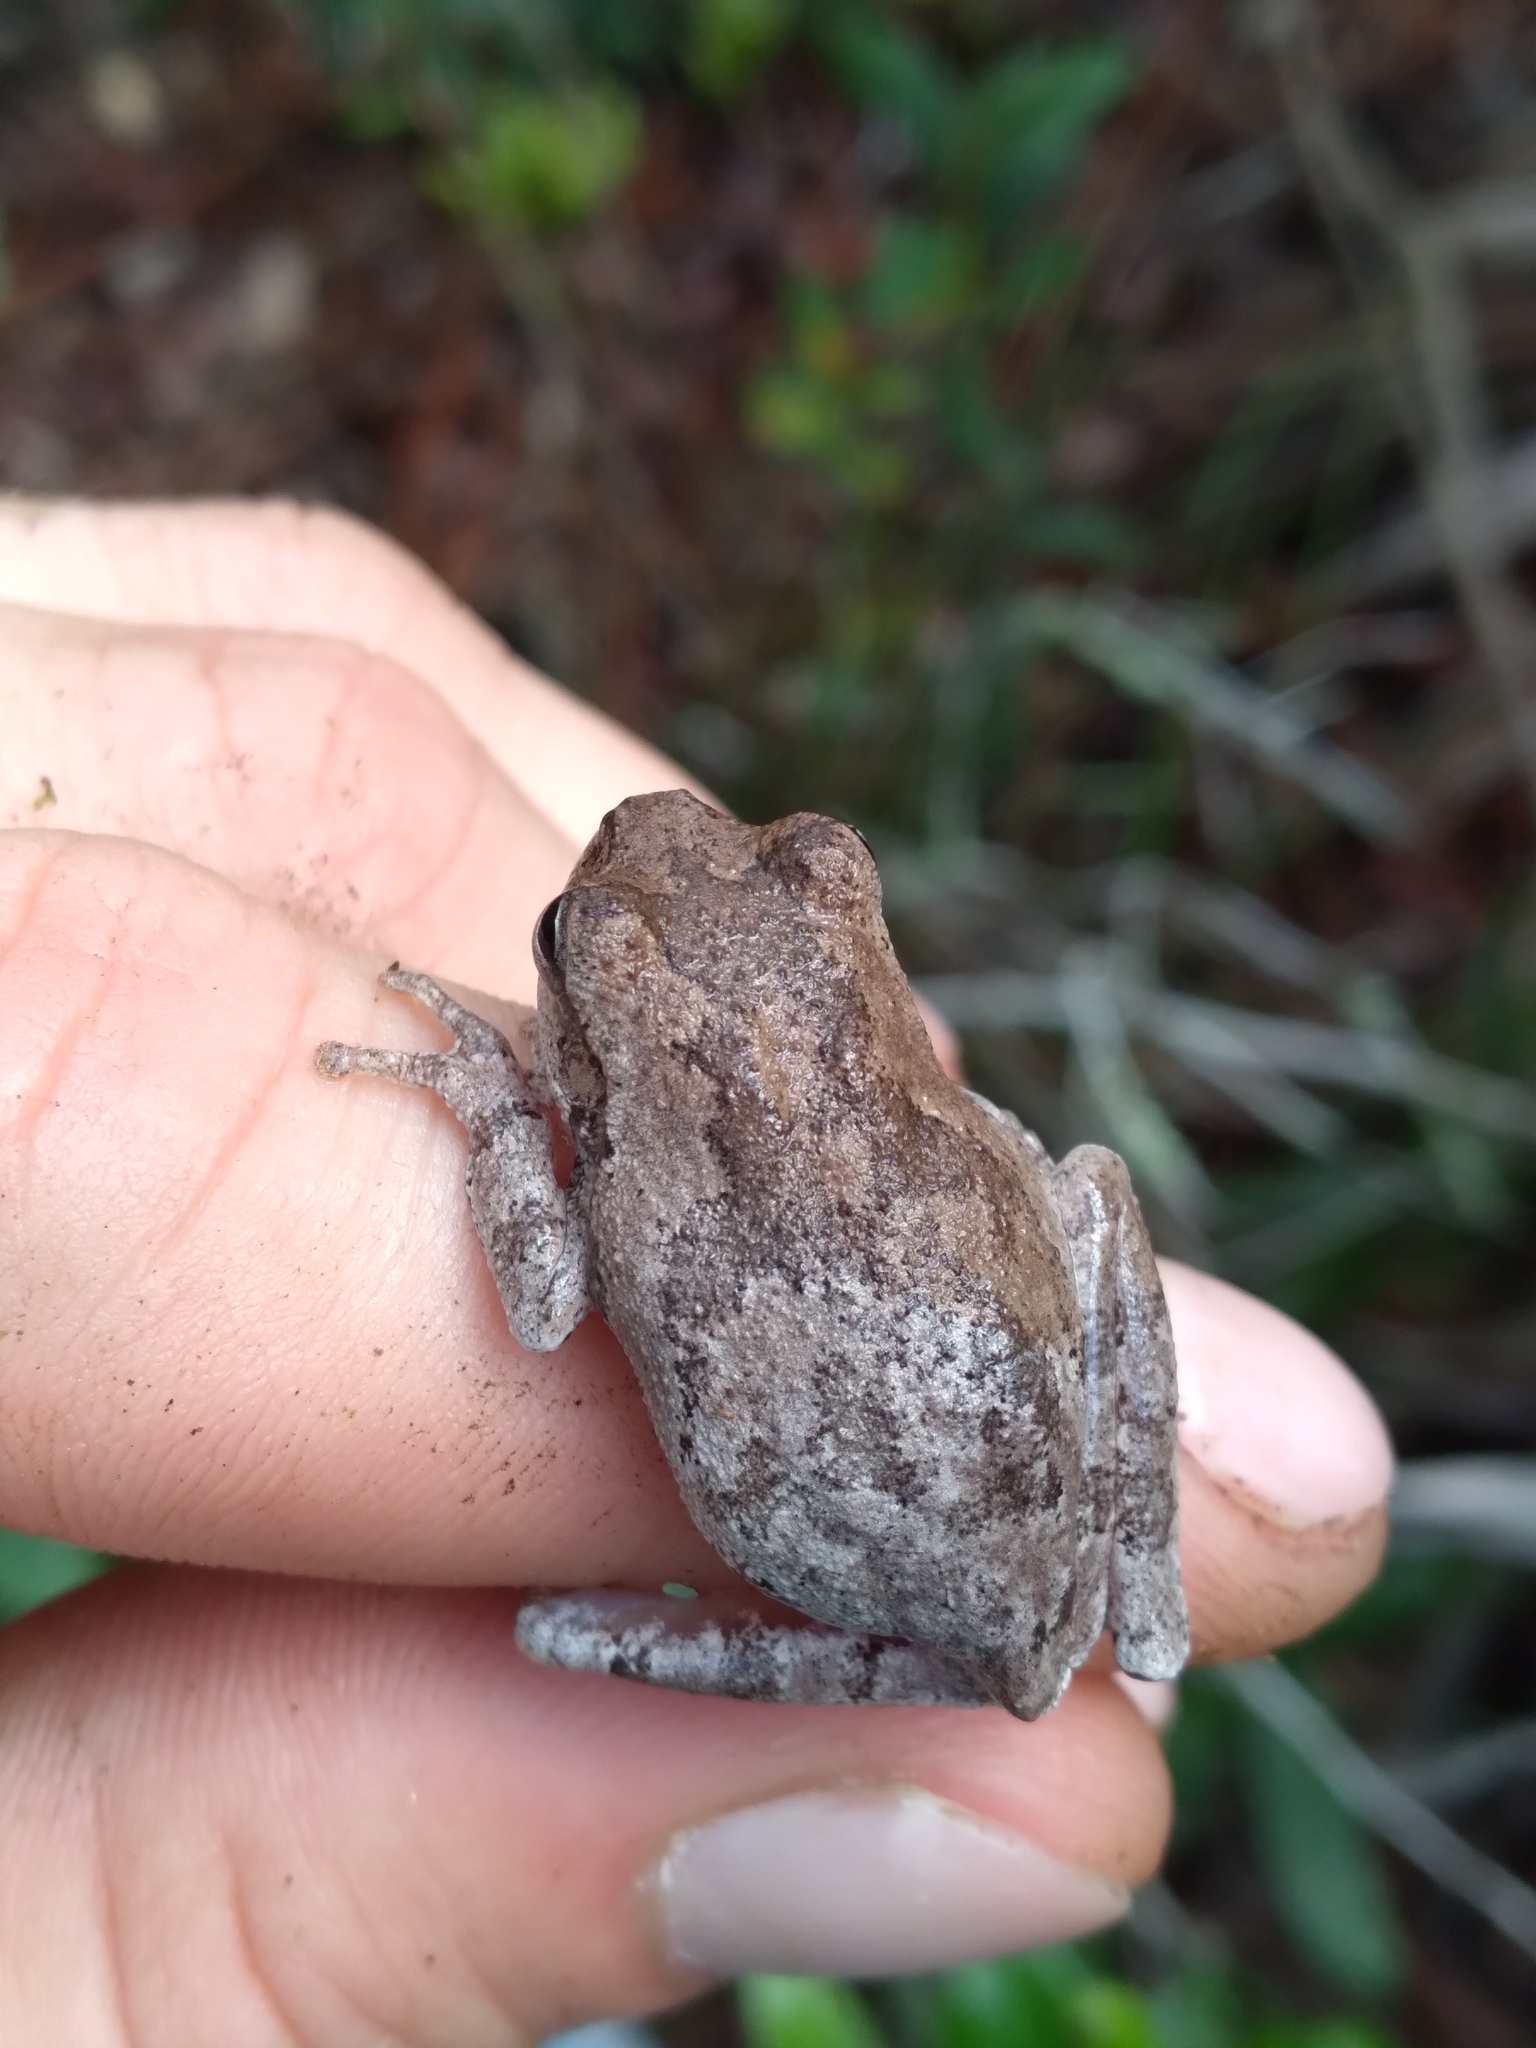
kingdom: Animalia
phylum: Chordata
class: Amphibia
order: Anura
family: Hylidae
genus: Hyla
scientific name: Hyla femoralis
